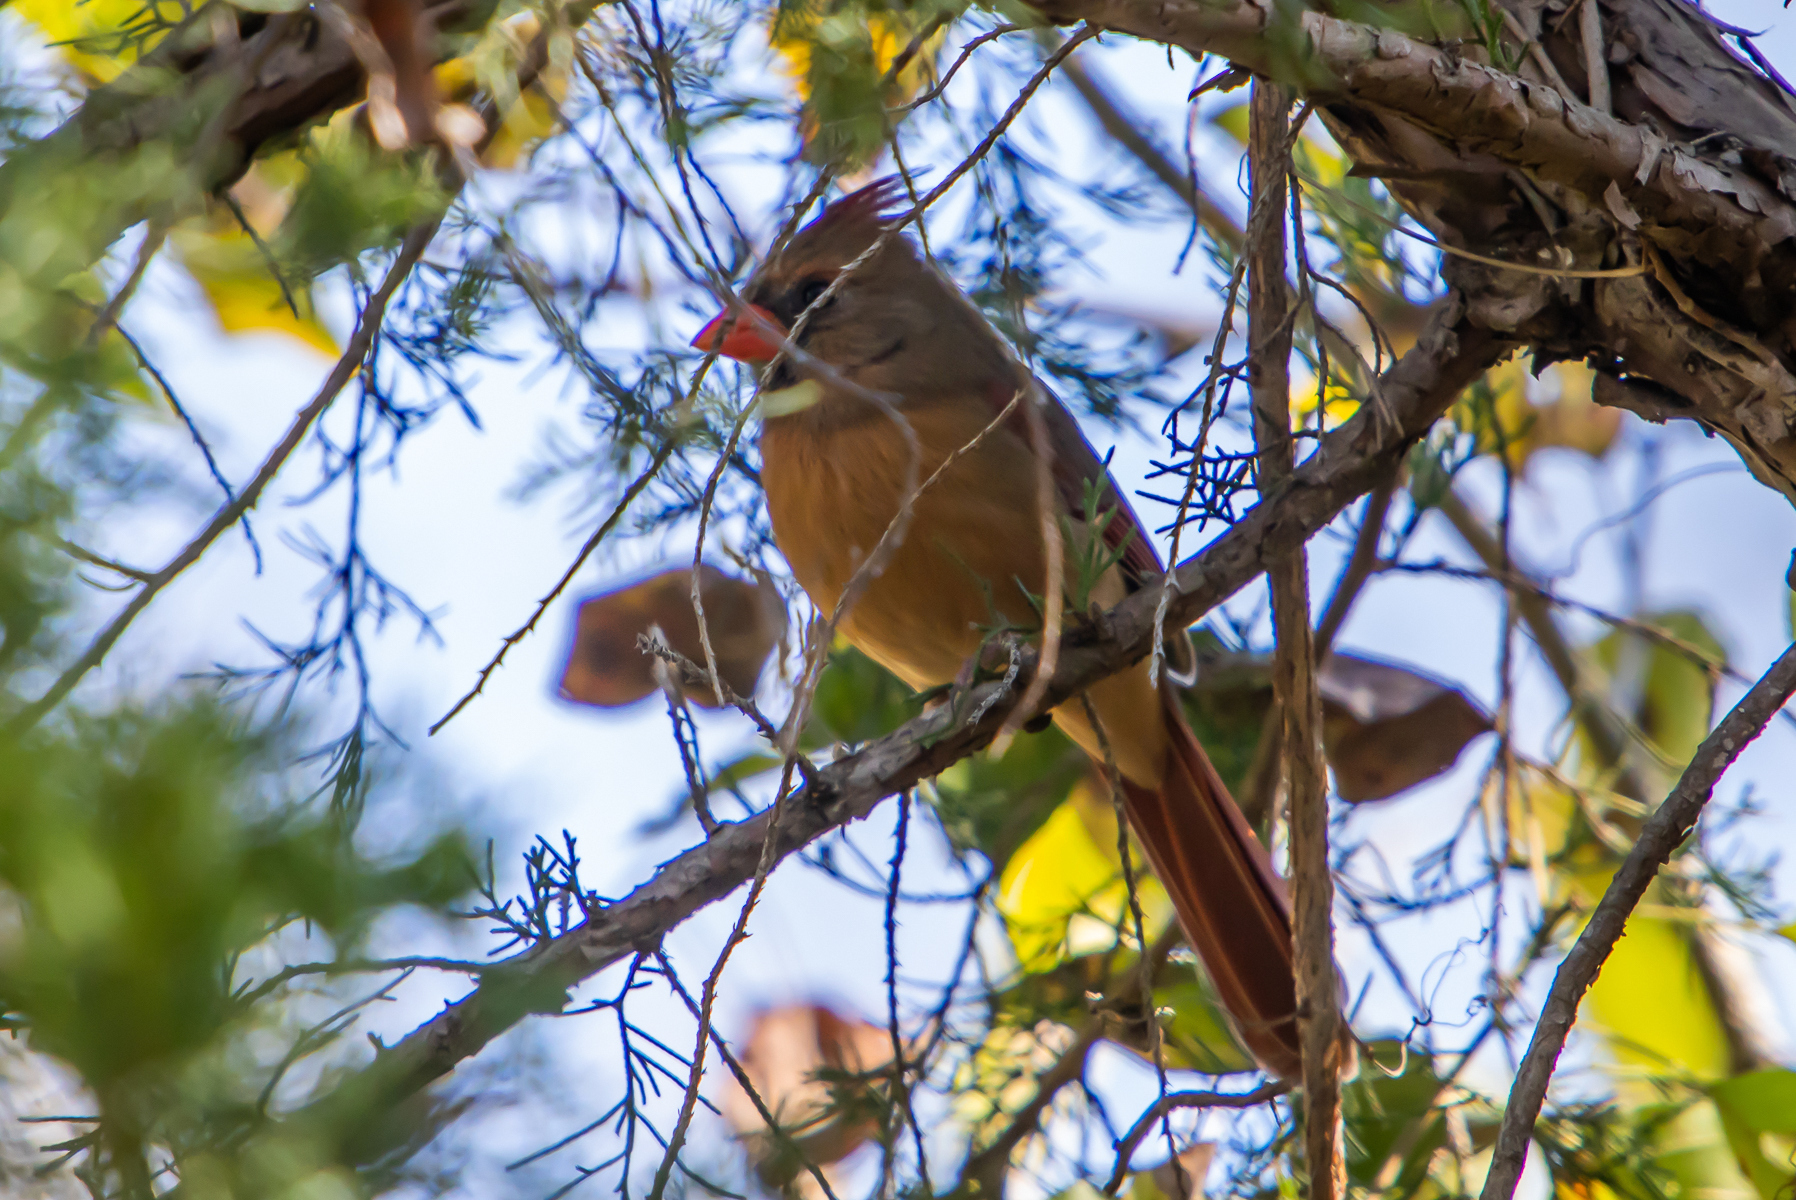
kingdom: Animalia
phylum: Chordata
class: Aves
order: Passeriformes
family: Cardinalidae
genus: Cardinalis
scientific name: Cardinalis cardinalis
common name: Northern cardinal
